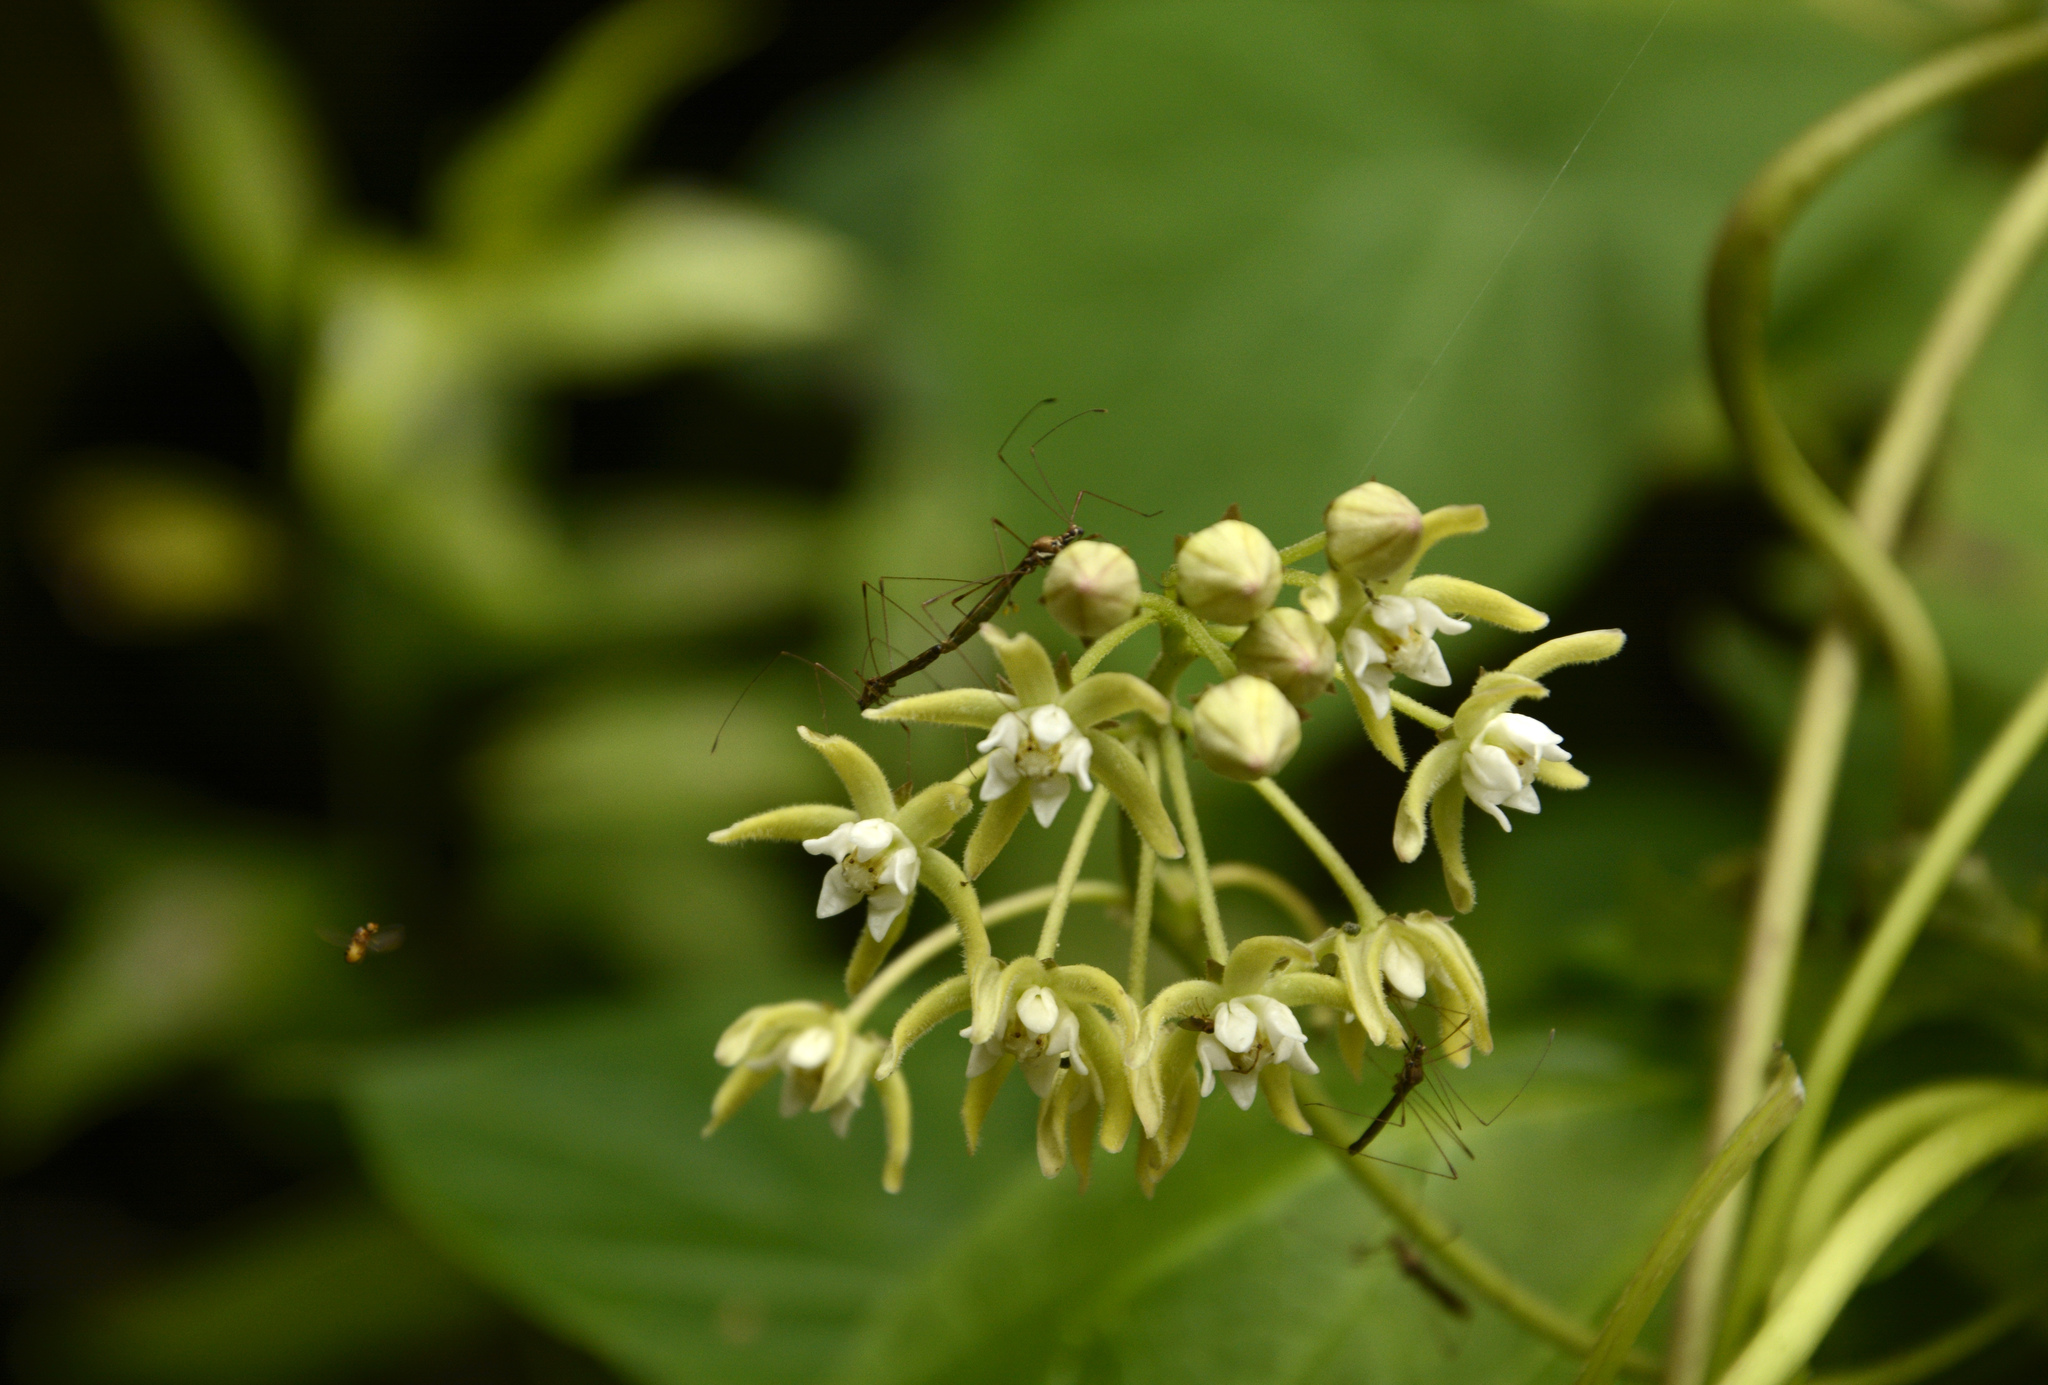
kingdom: Plantae
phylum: Tracheophyta
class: Magnoliopsida
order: Gentianales
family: Apocynaceae
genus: Cynanchum
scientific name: Cynanchum auriculatum
